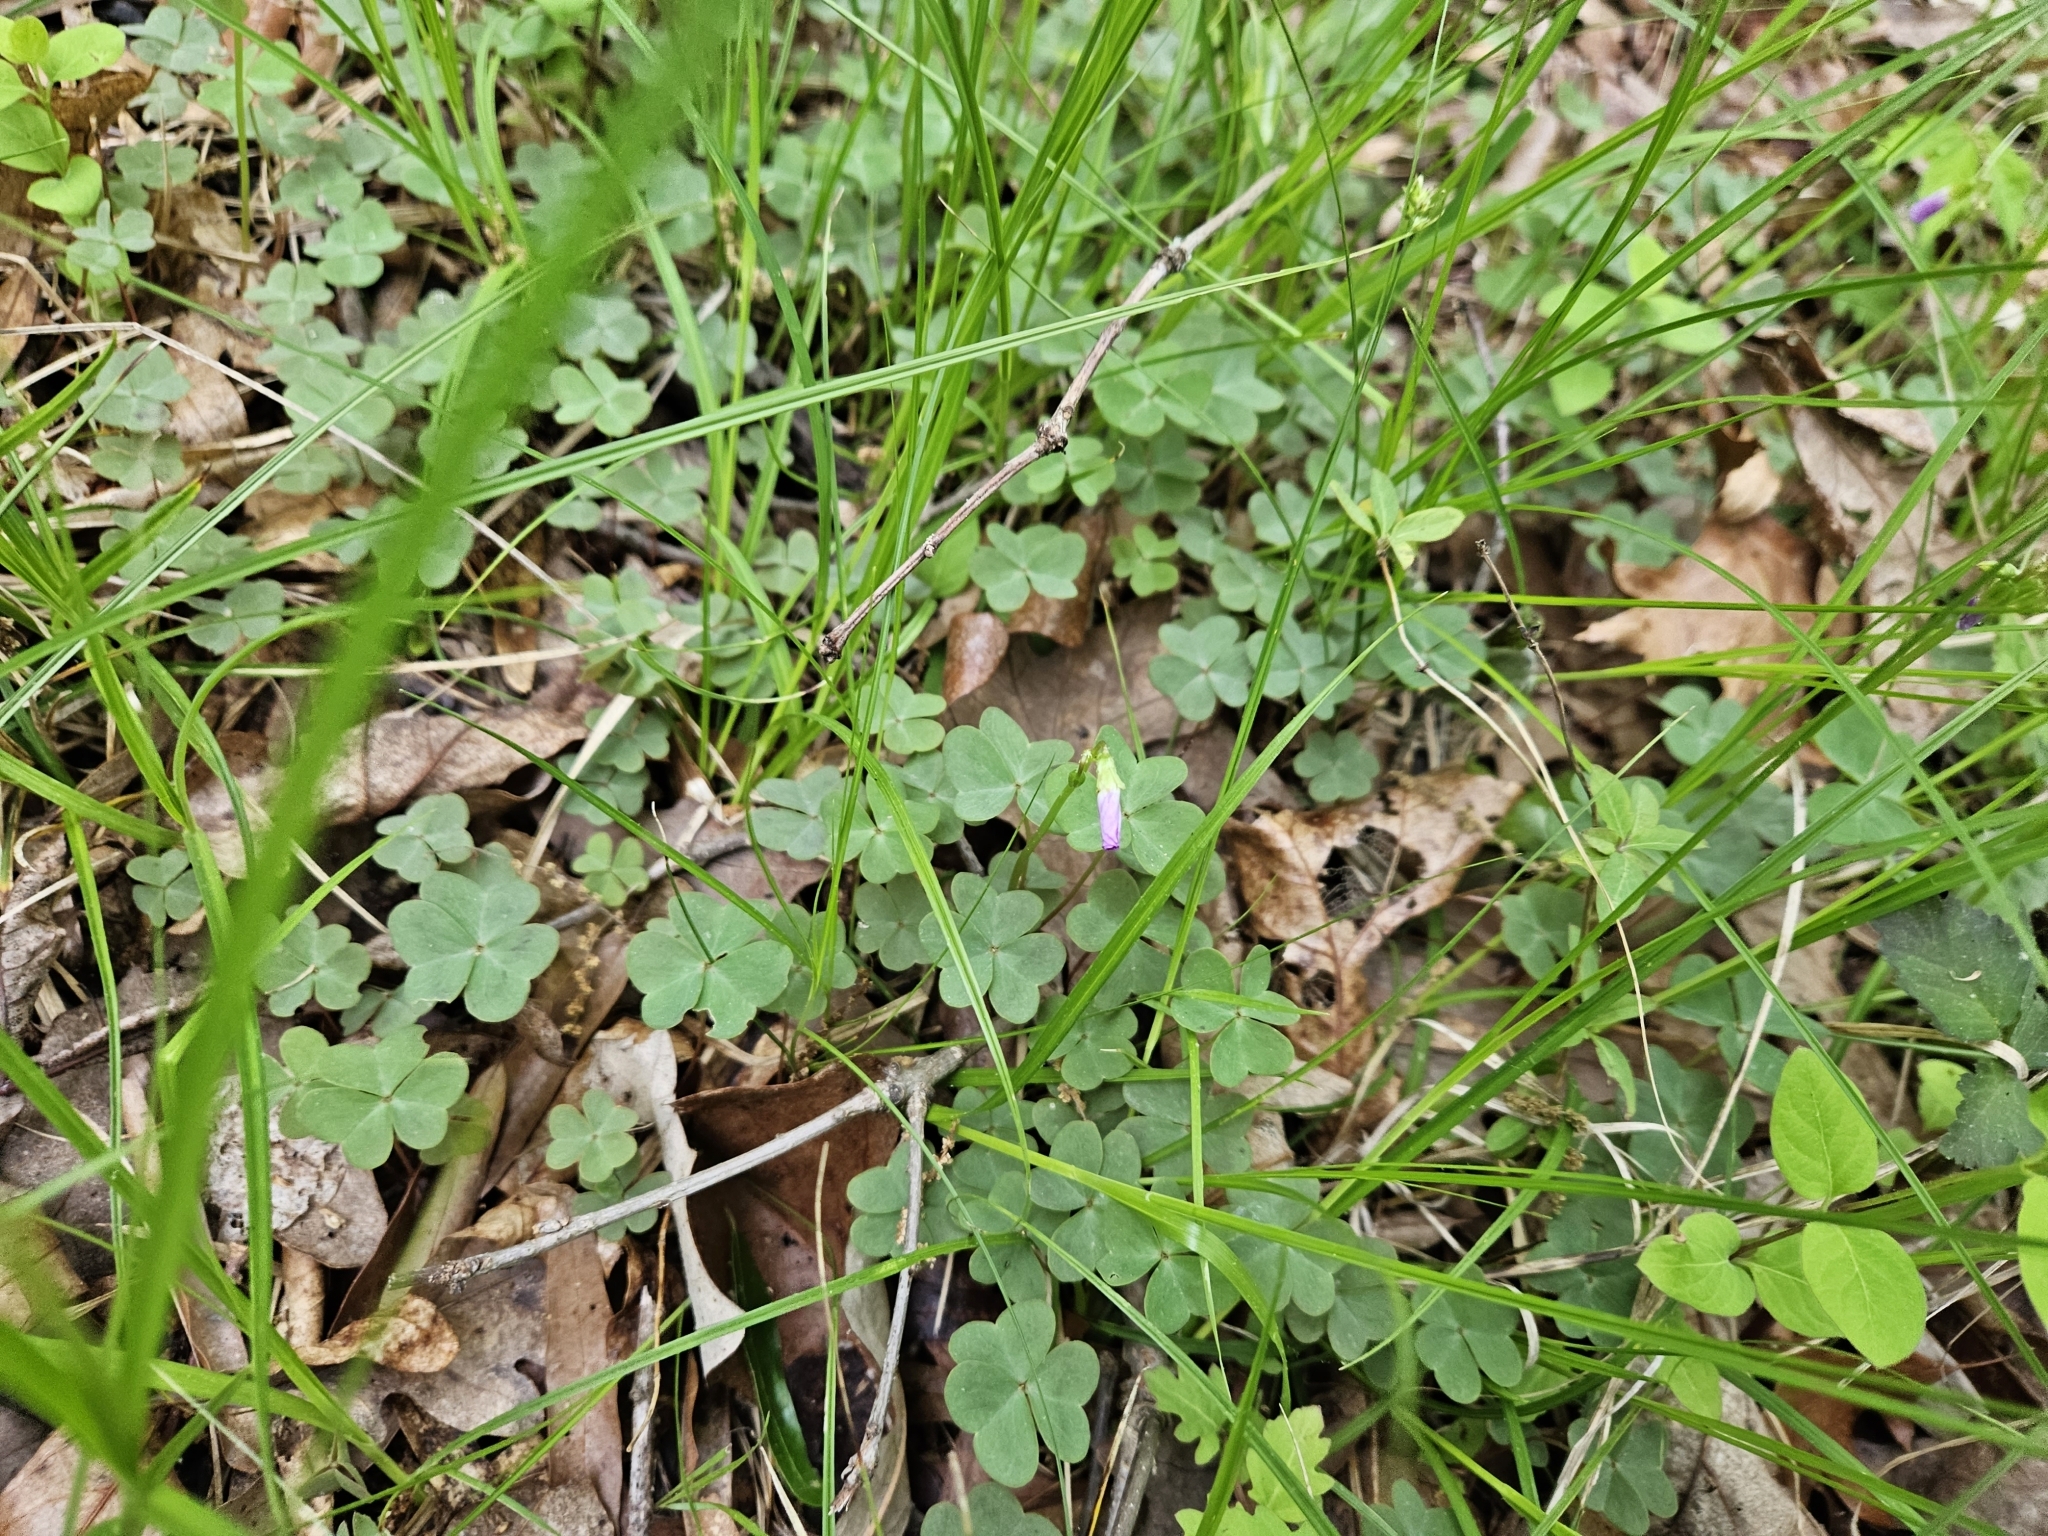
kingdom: Plantae
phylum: Tracheophyta
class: Magnoliopsida
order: Oxalidales
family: Oxalidaceae
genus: Oxalis
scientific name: Oxalis violacea
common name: Violet wood-sorrel
